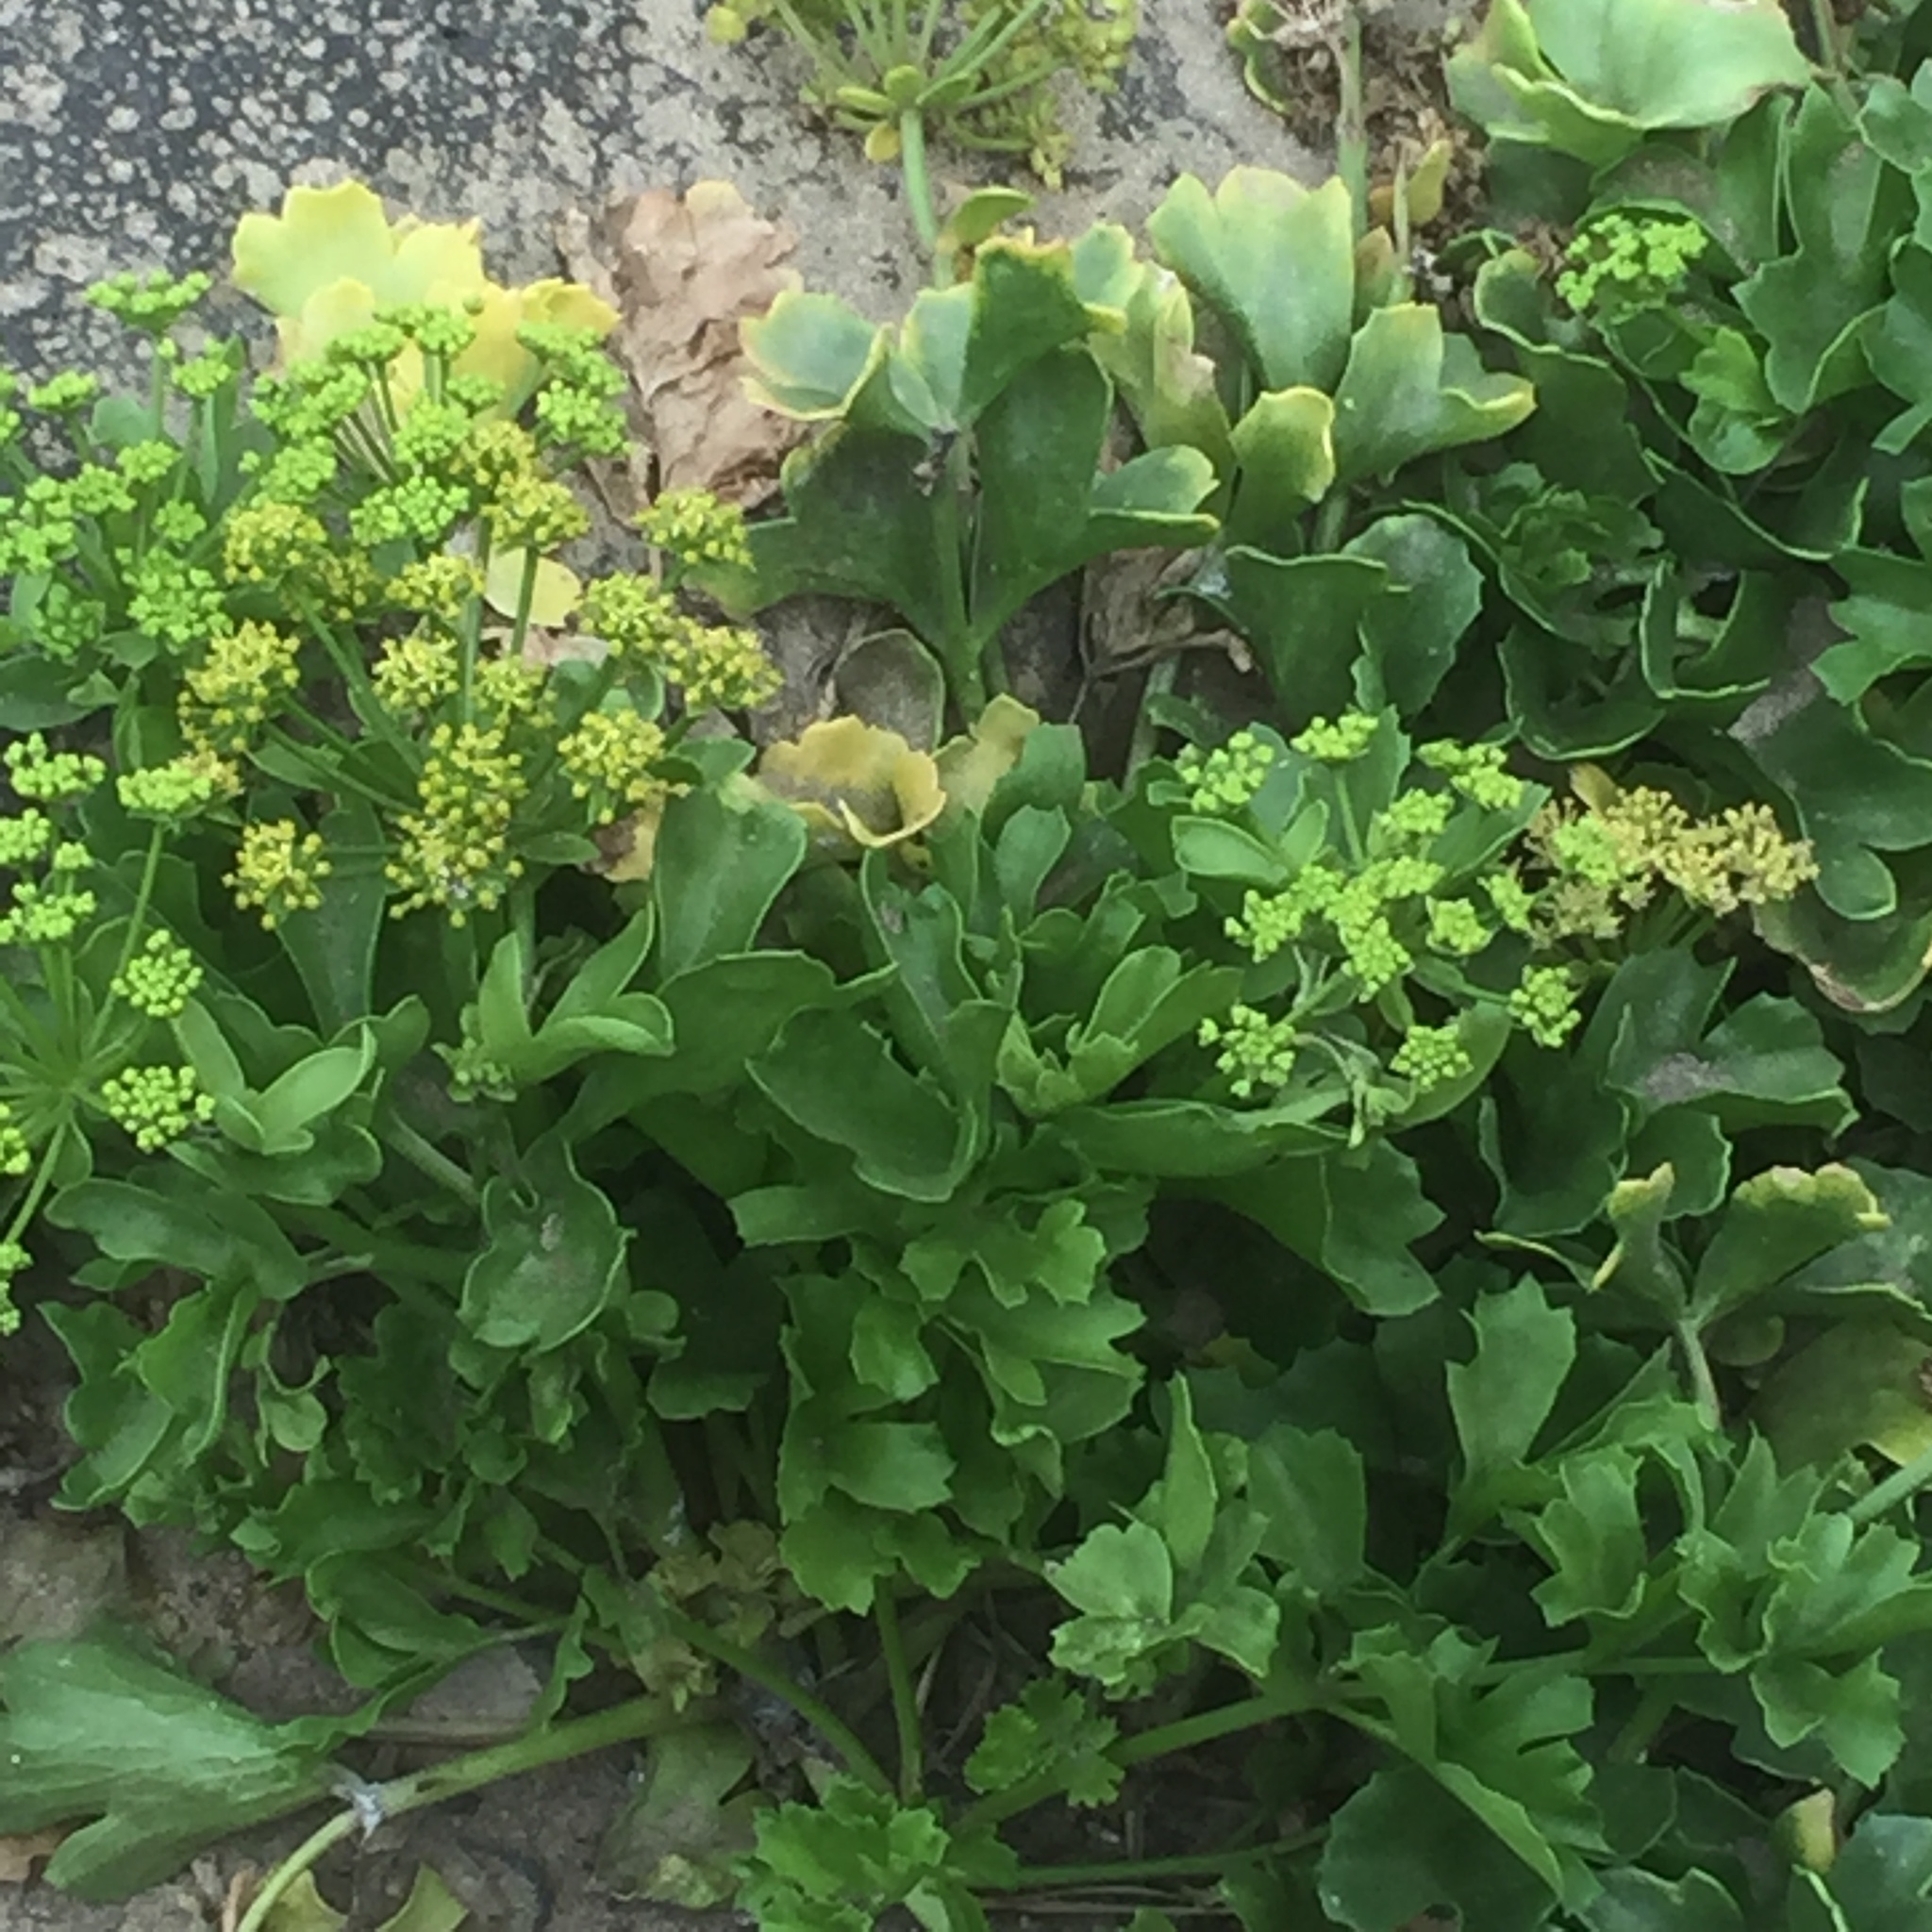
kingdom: Plantae
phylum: Tracheophyta
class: Magnoliopsida
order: Apiales
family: Apiaceae
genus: Astydamia
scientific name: Astydamia latifolia
